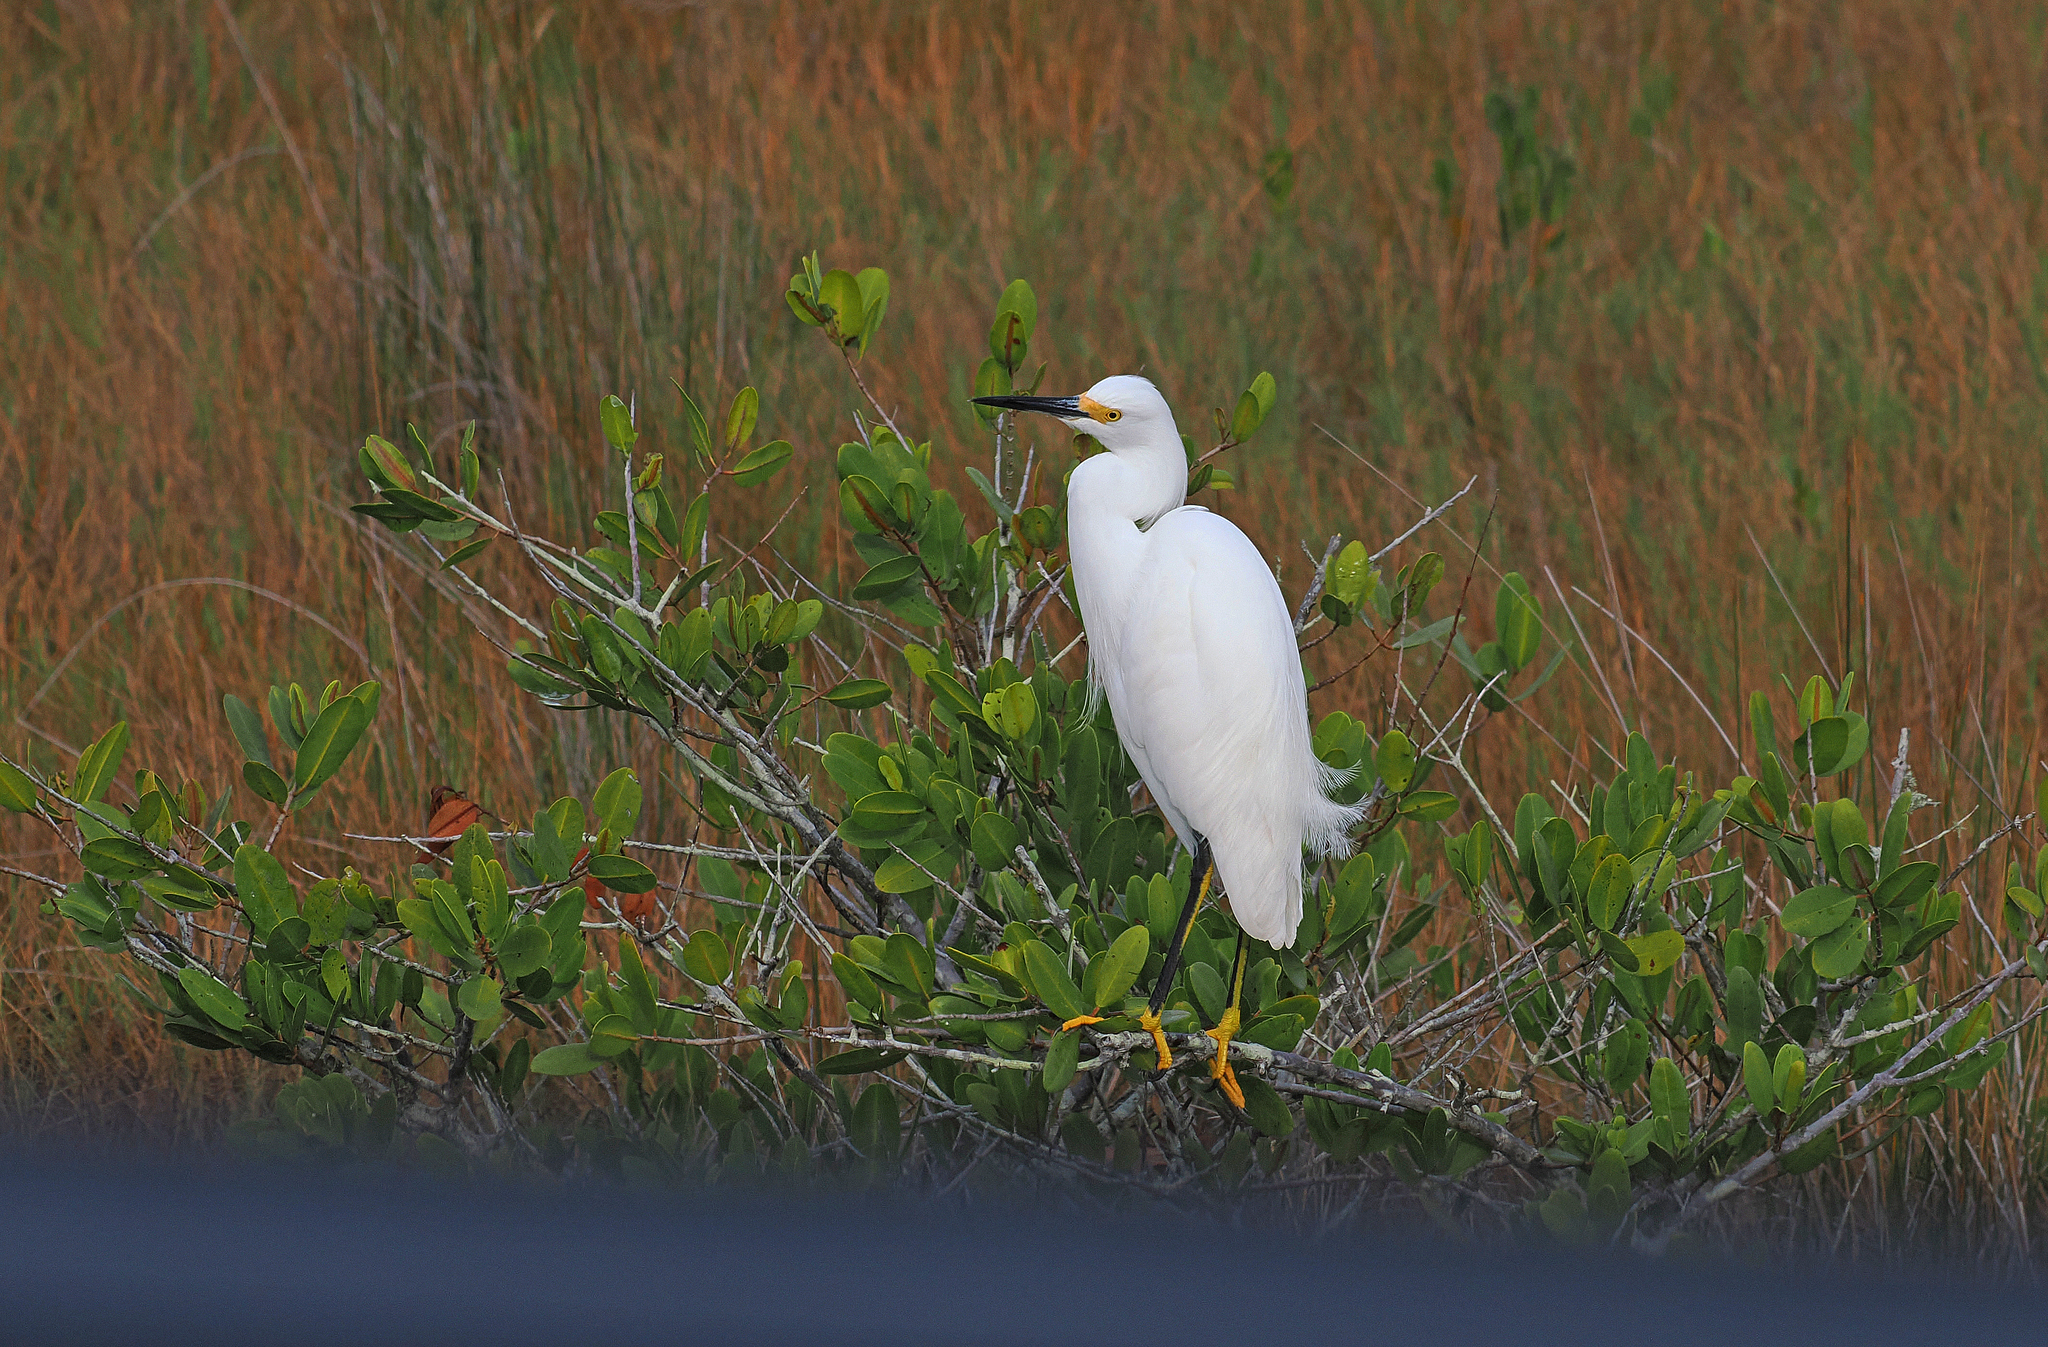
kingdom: Animalia
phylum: Chordata
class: Aves
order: Pelecaniformes
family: Ardeidae
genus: Egretta
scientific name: Egretta thula
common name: Snowy egret
